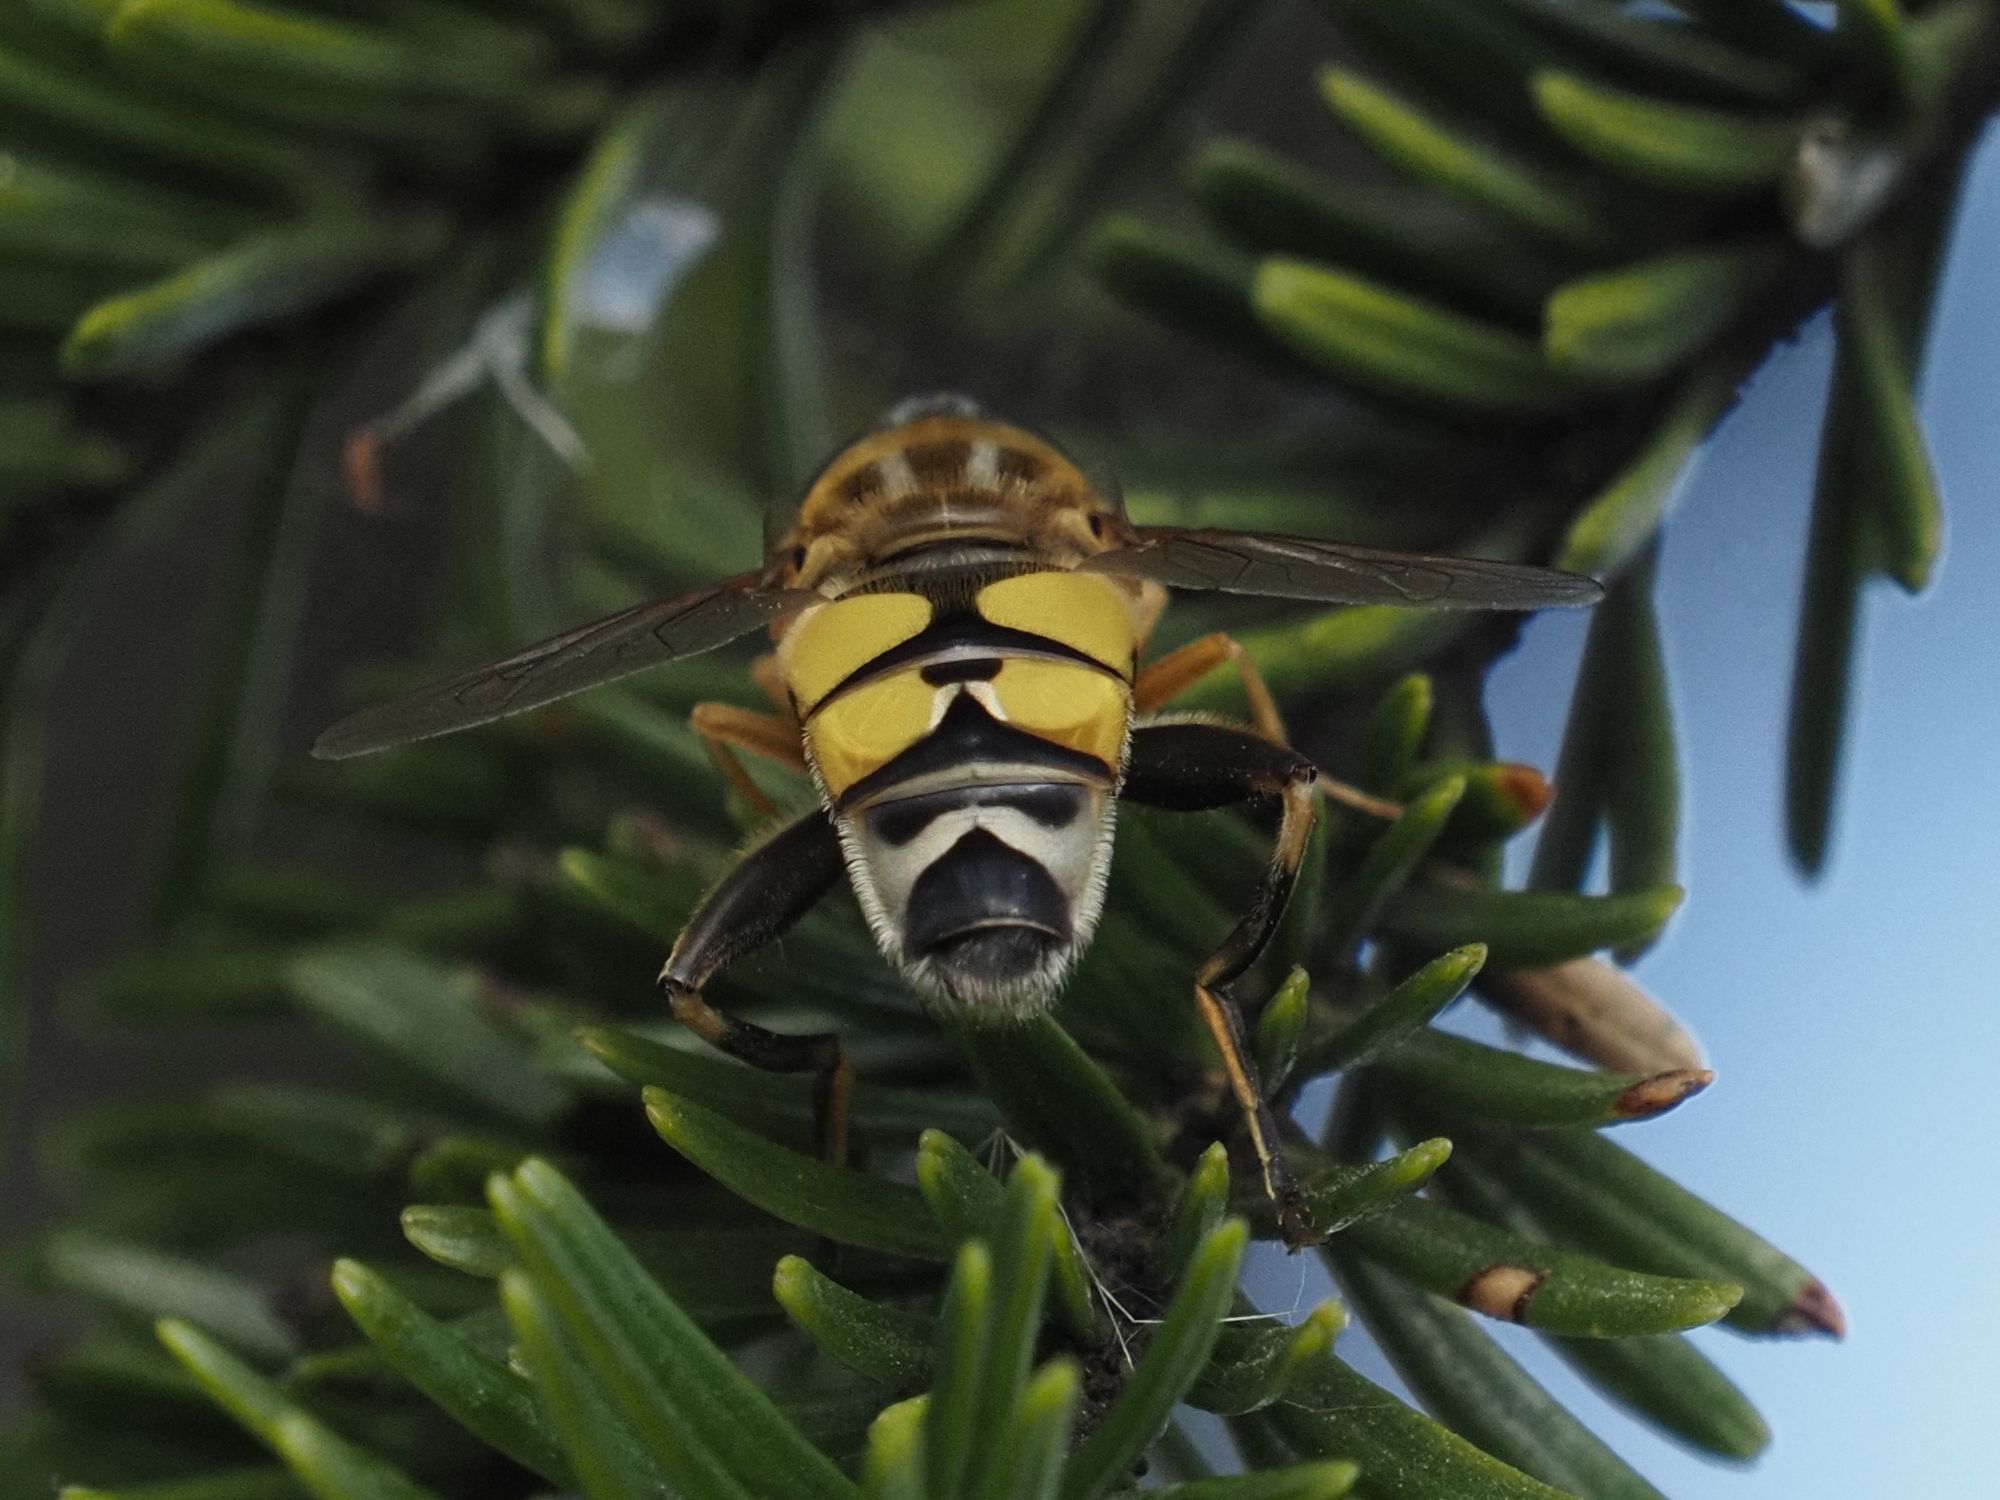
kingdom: Animalia
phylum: Arthropoda
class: Insecta
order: Diptera
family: Syrphidae
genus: Helophilus
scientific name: Helophilus trivittatus
